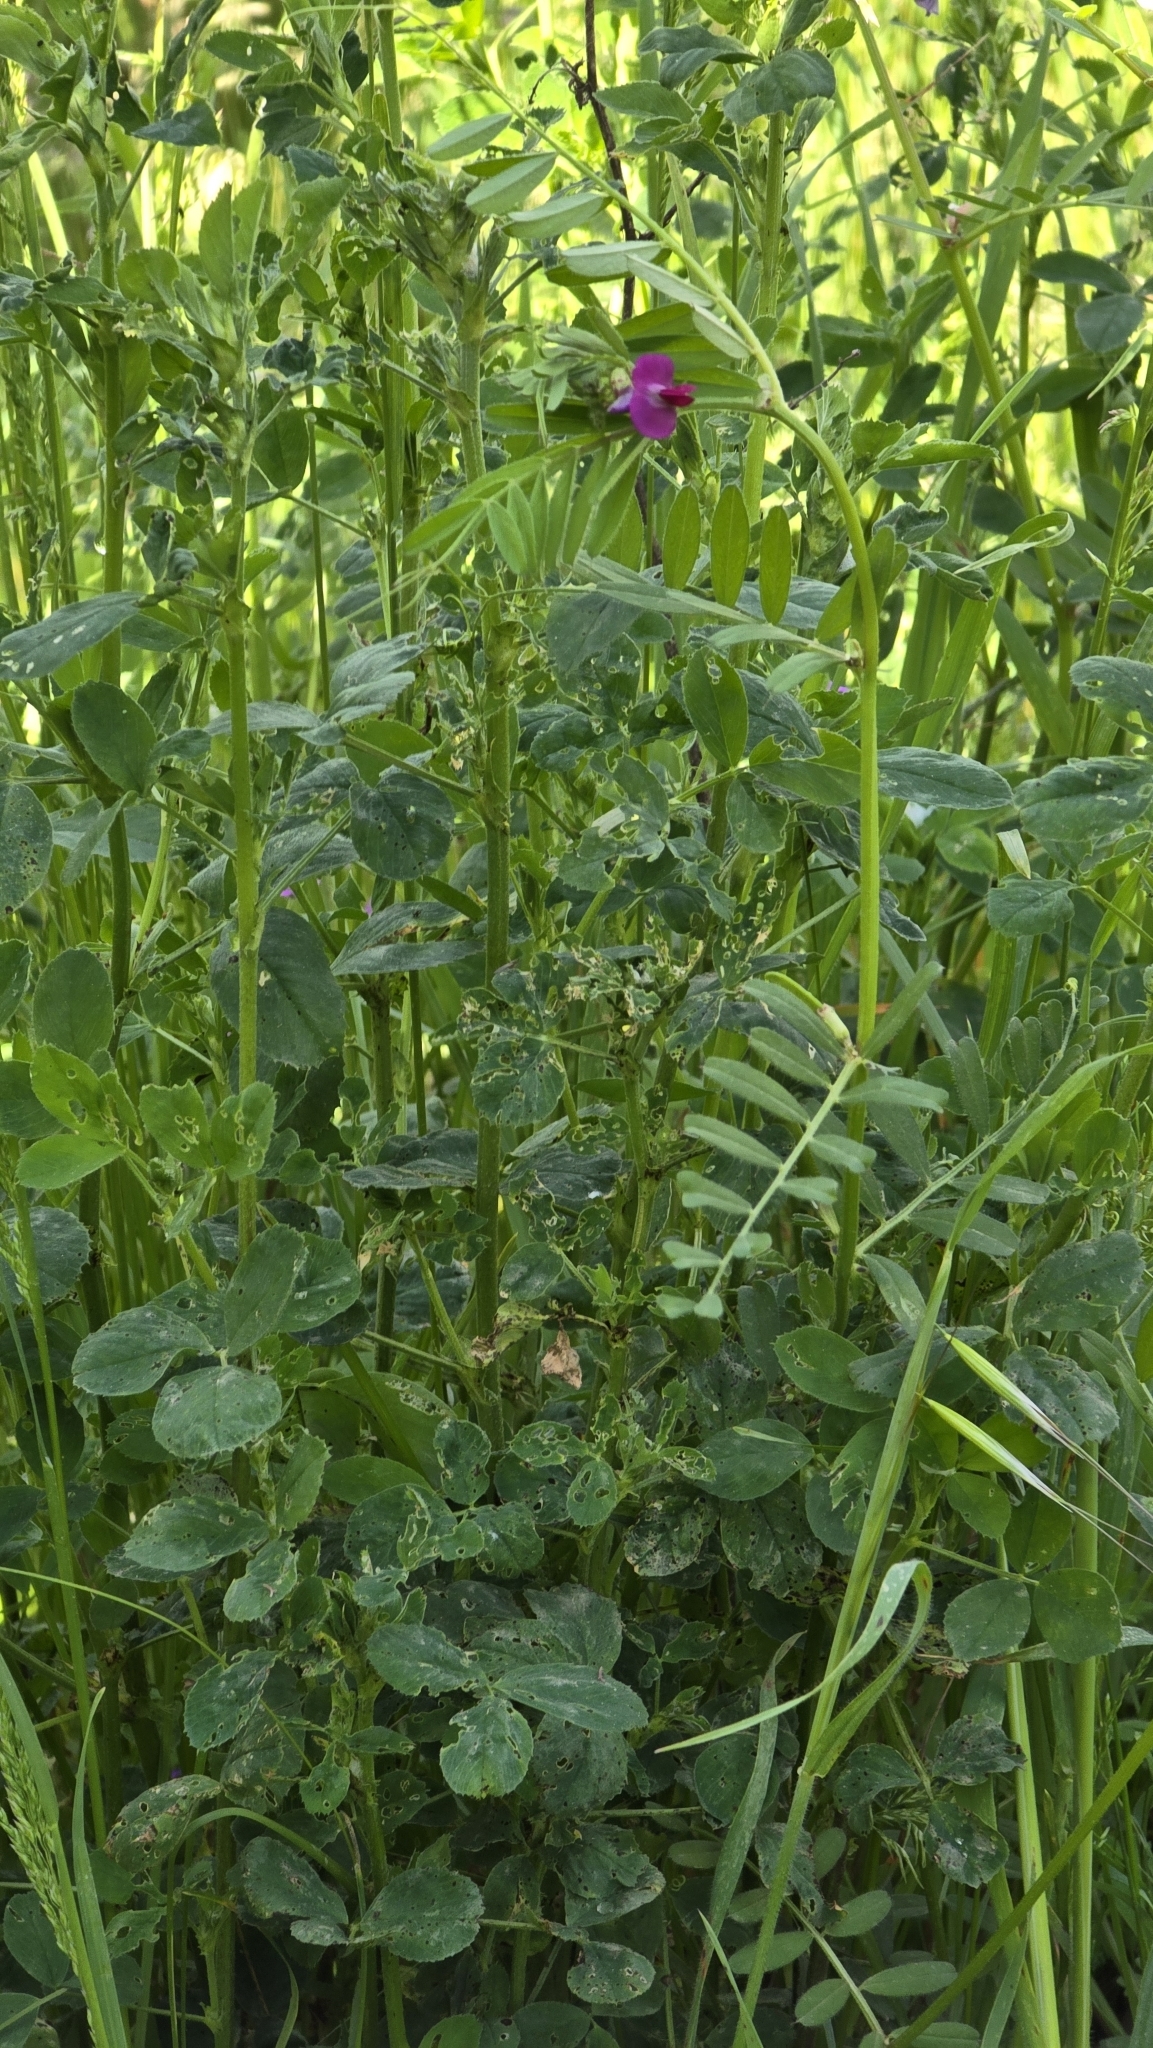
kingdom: Plantae
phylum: Tracheophyta
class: Magnoliopsida
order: Fabales
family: Fabaceae
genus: Vicia
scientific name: Vicia sativa
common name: Garden vetch
